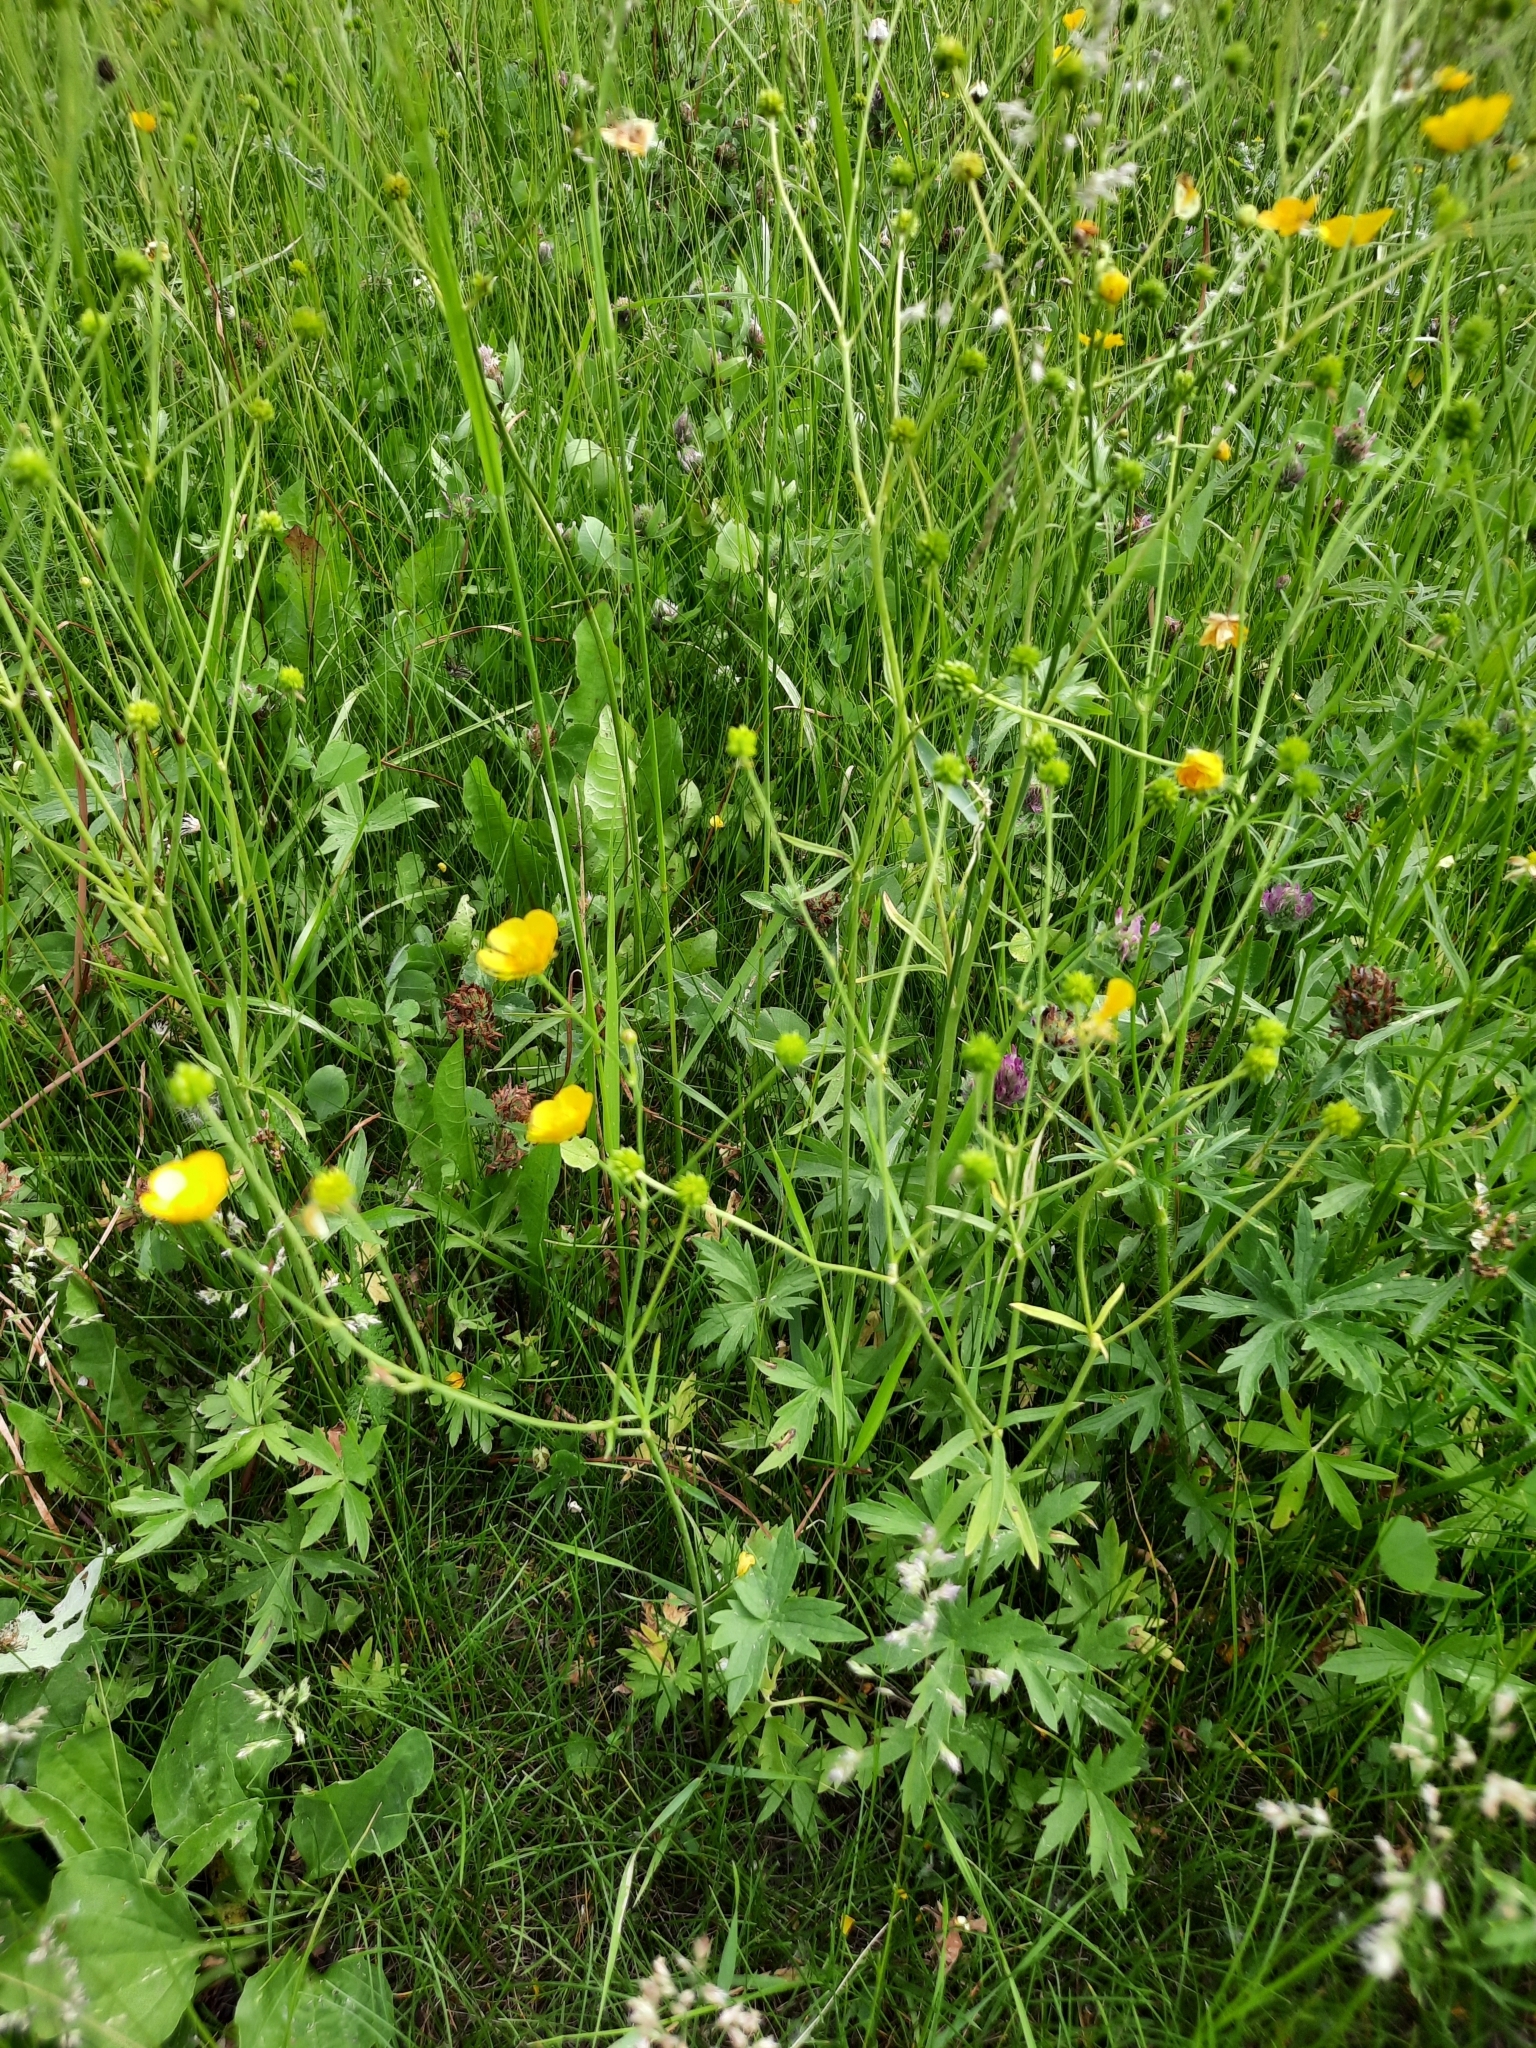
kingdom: Plantae
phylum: Tracheophyta
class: Magnoliopsida
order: Ranunculales
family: Ranunculaceae
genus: Ranunculus
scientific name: Ranunculus acris
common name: Meadow buttercup
